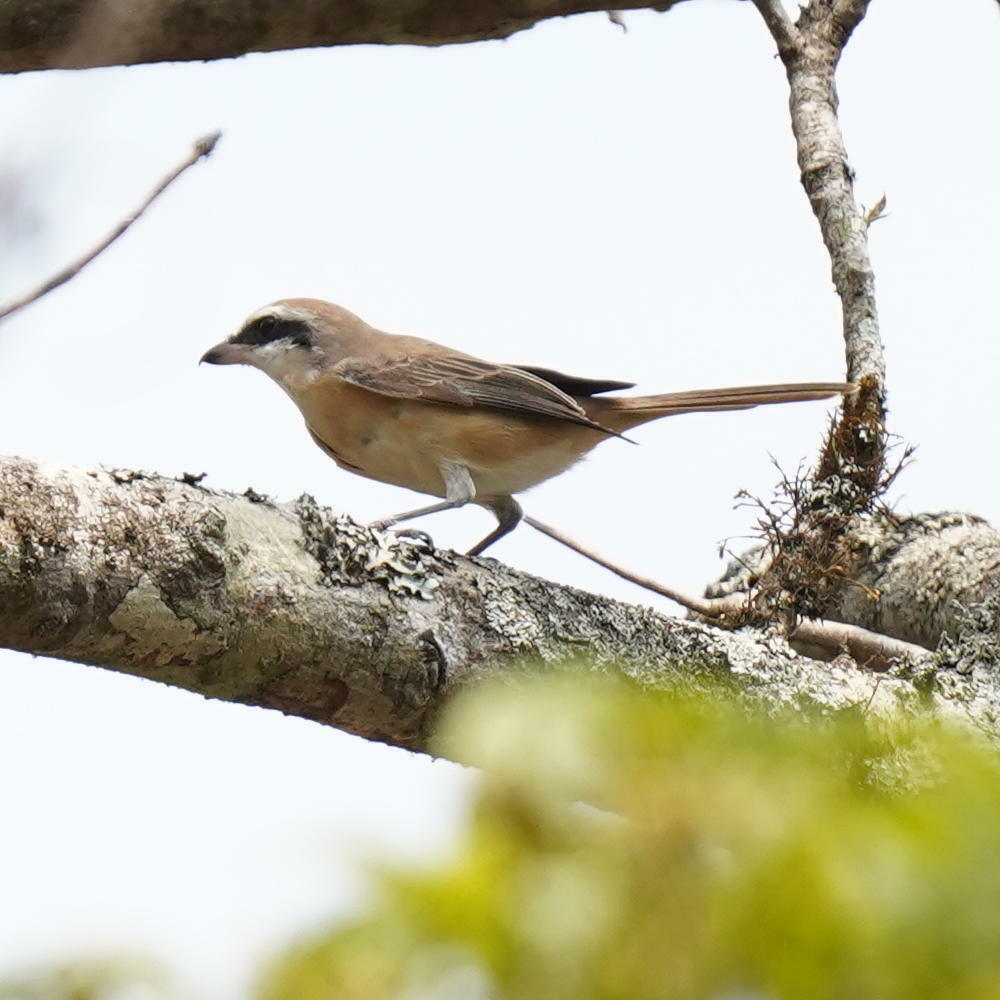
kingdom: Animalia
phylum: Chordata
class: Aves
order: Passeriformes
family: Laniidae
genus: Lanius
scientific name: Lanius cristatus
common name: Brown shrike
